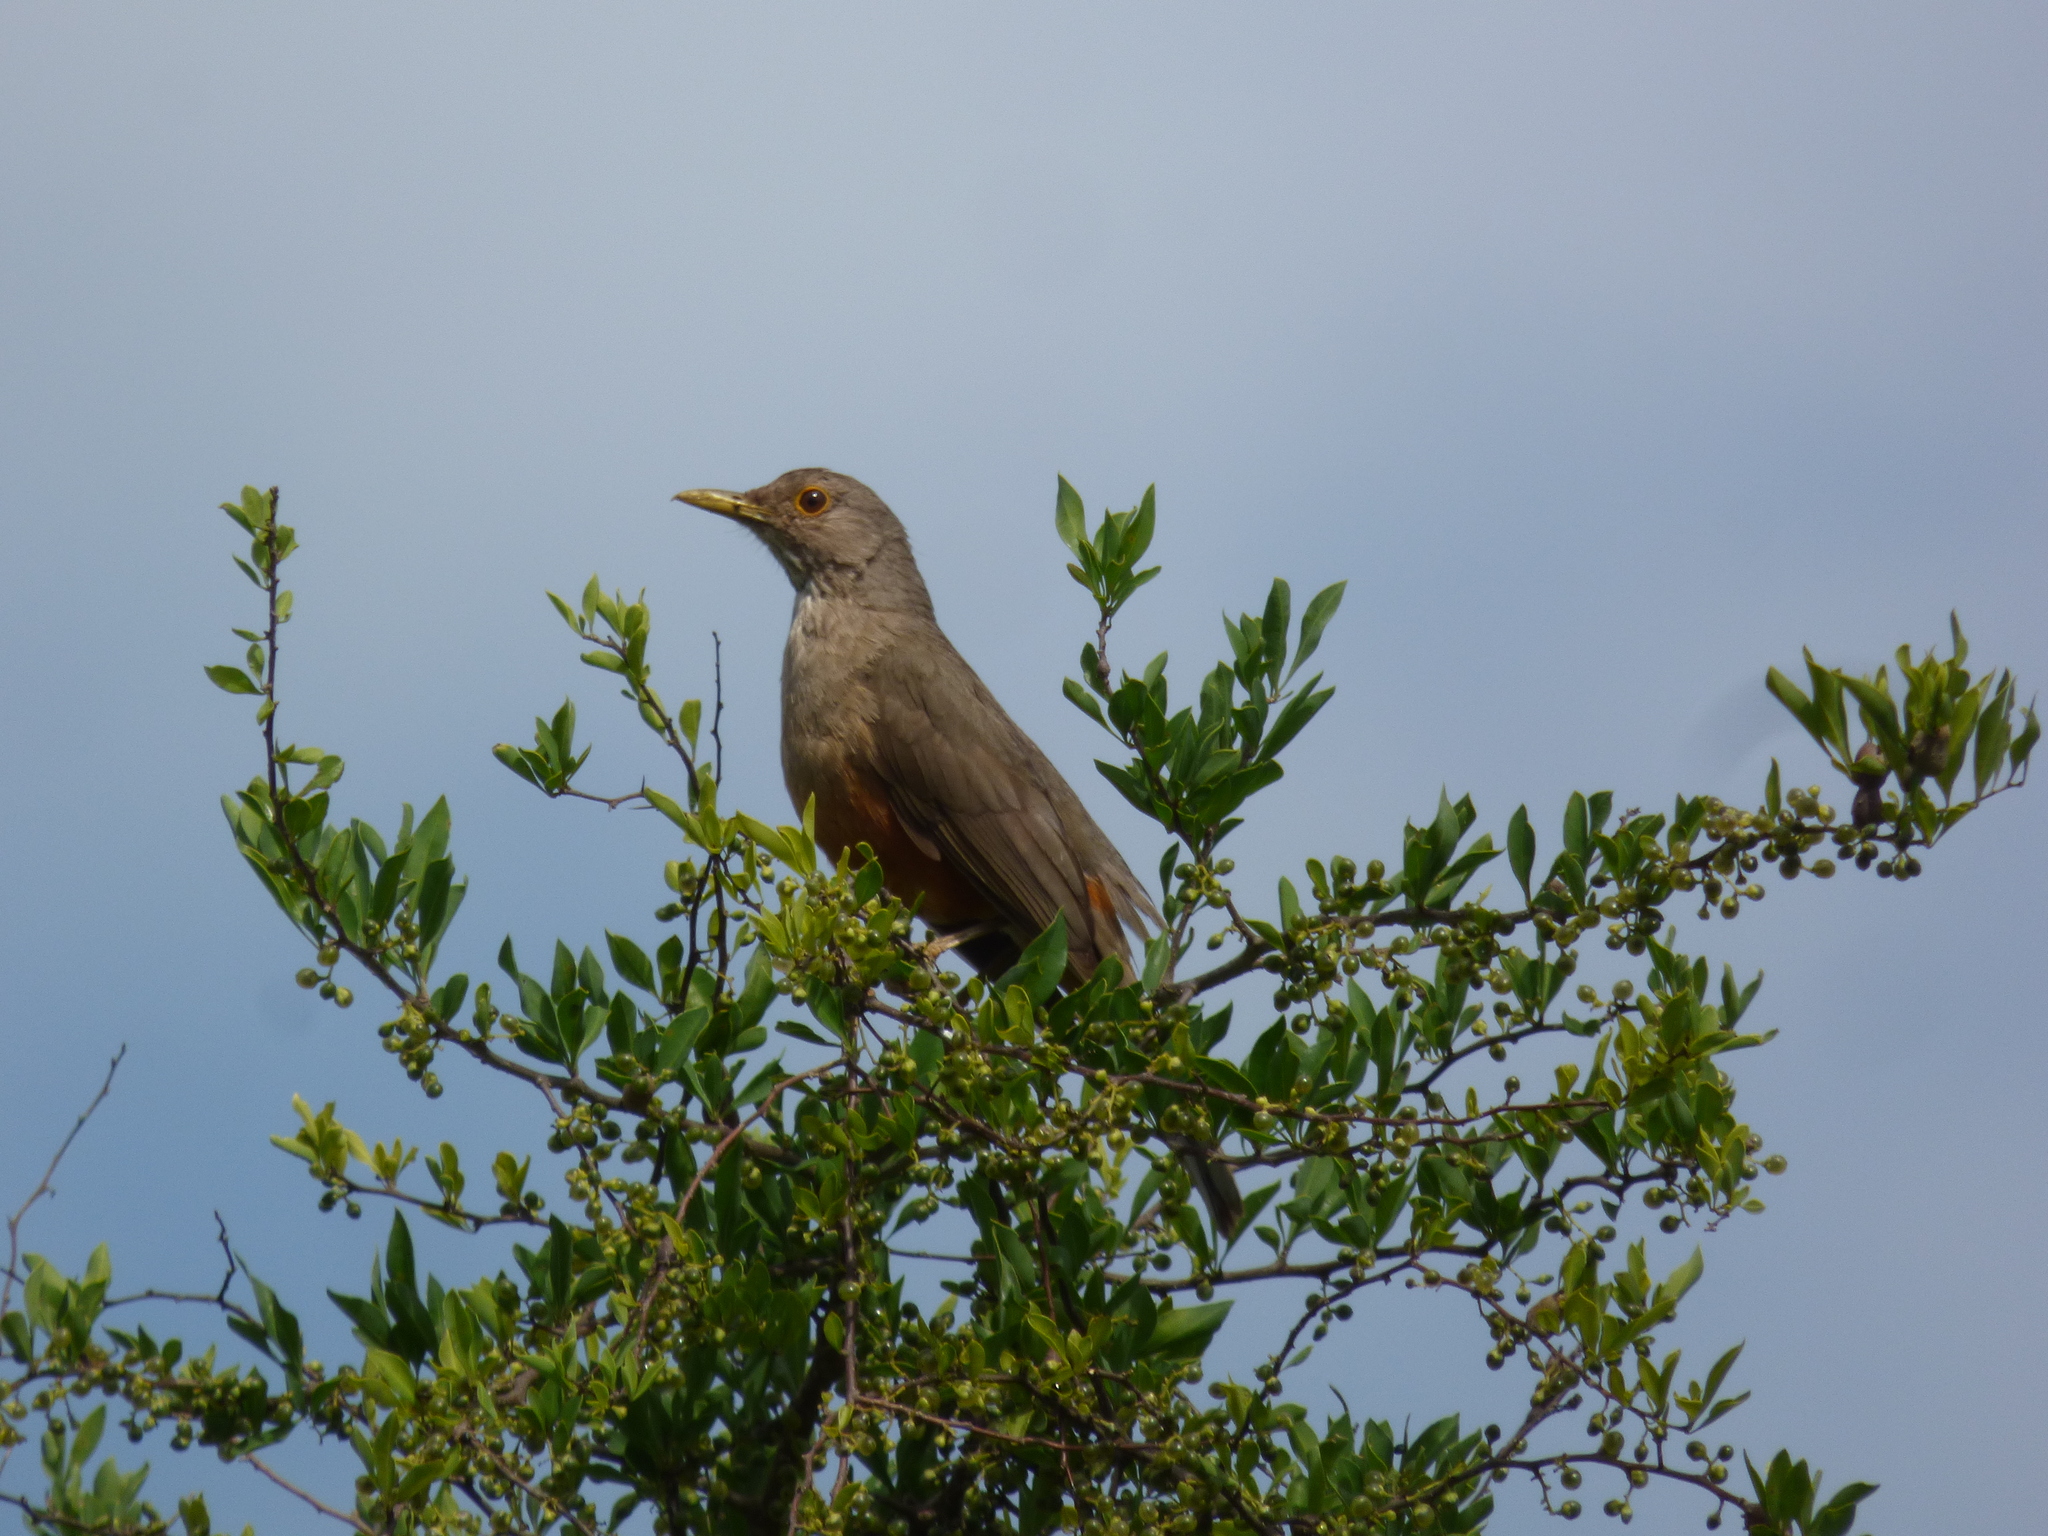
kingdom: Animalia
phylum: Chordata
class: Aves
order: Passeriformes
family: Turdidae
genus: Turdus
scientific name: Turdus rufiventris
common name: Rufous-bellied thrush
